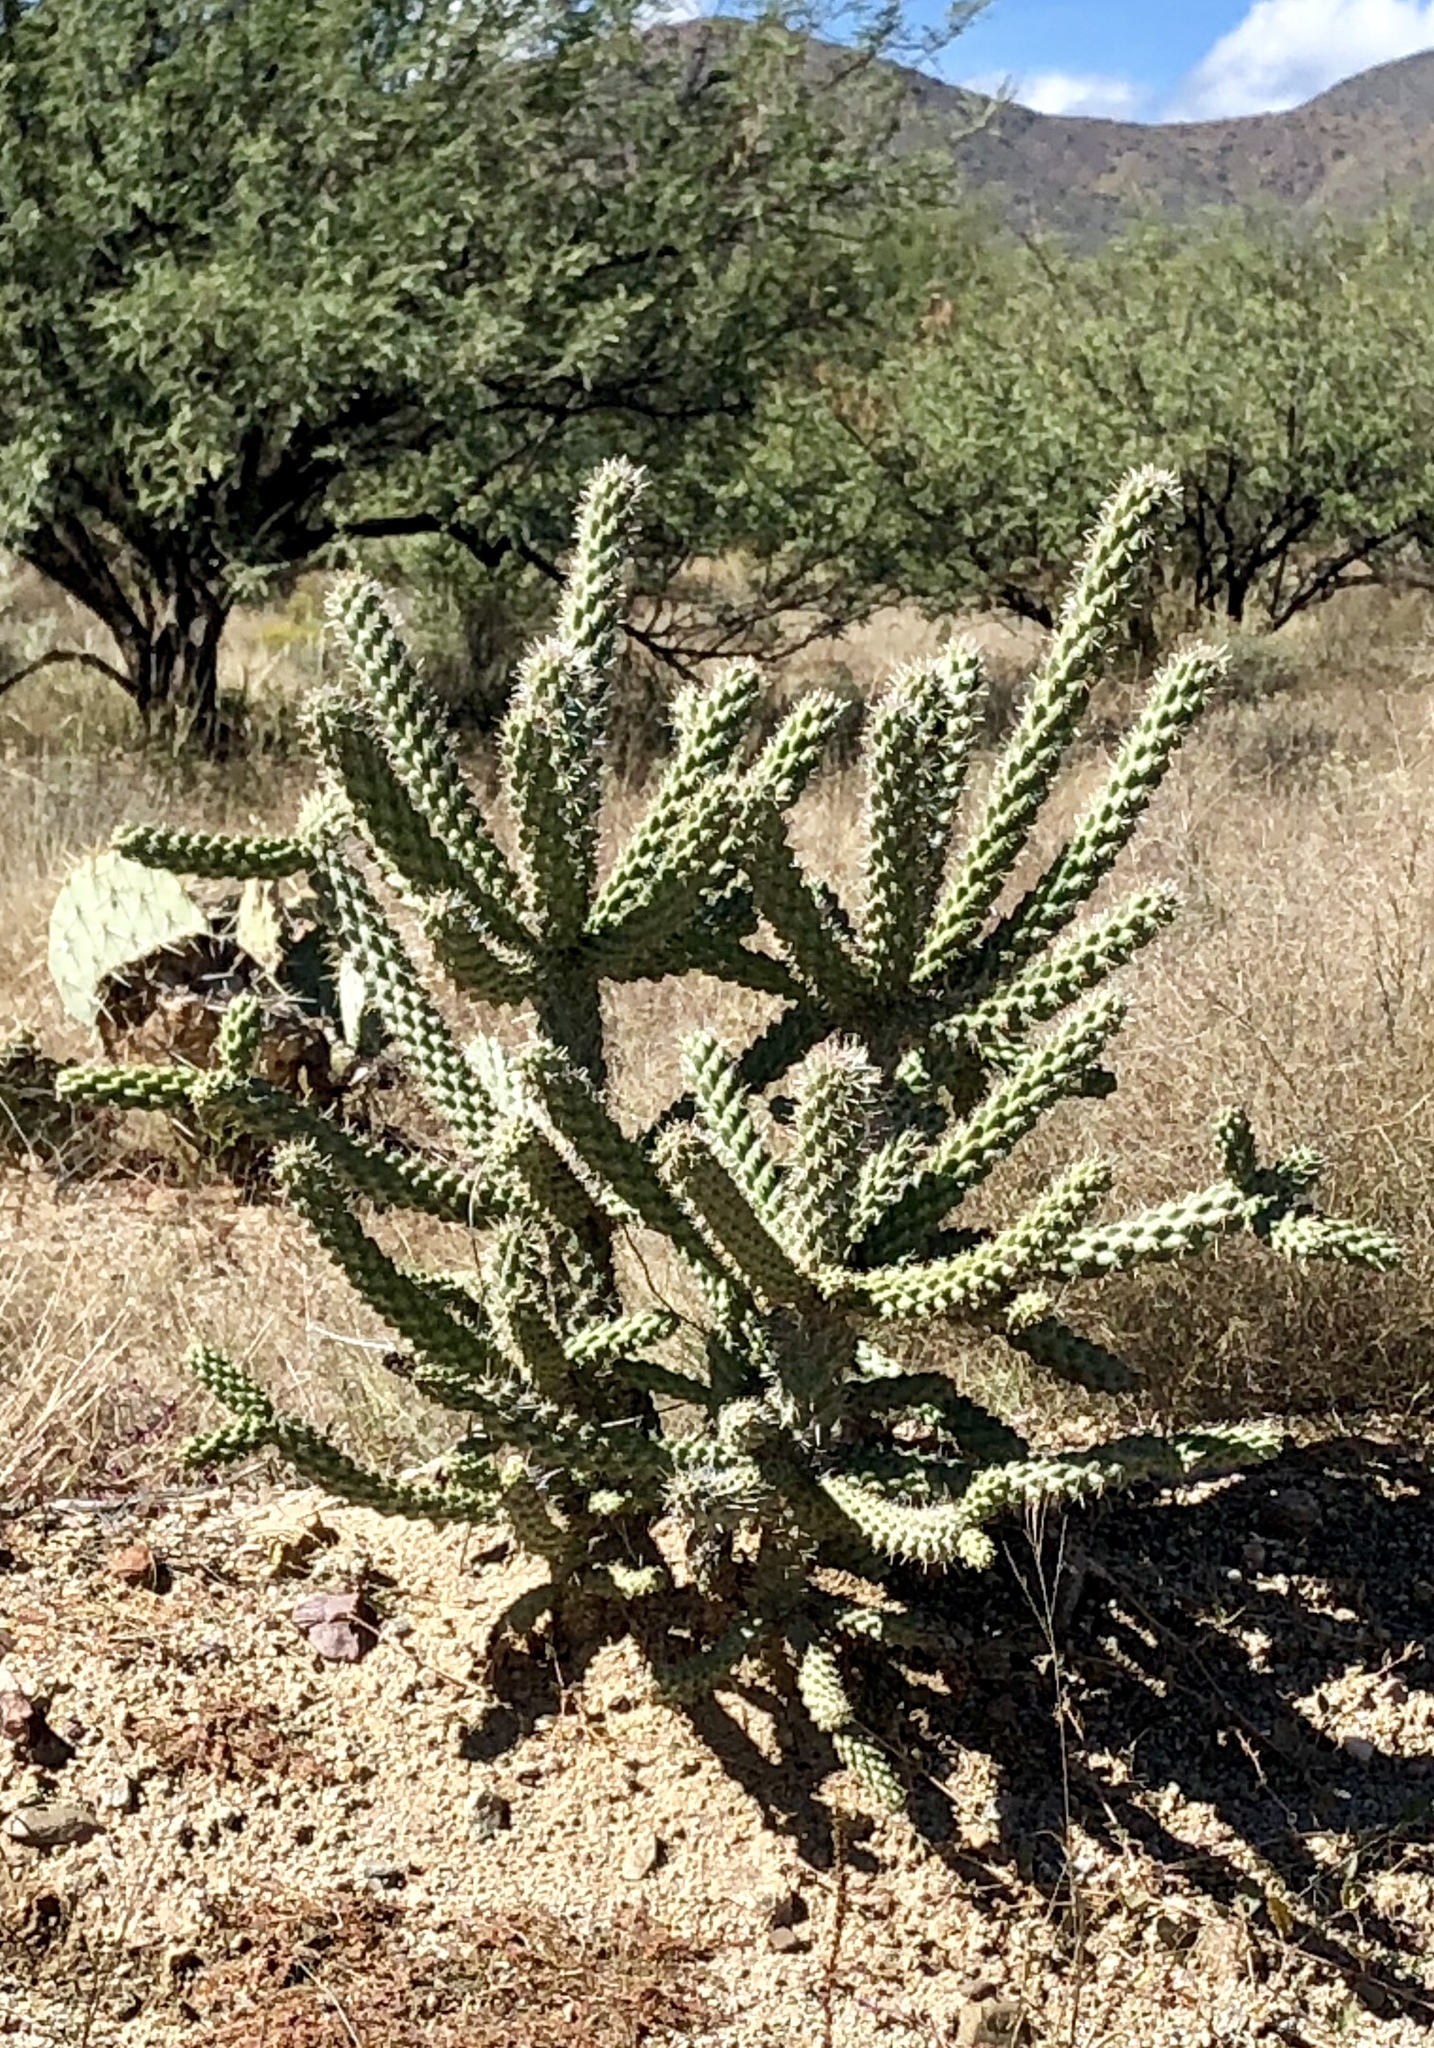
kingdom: Plantae
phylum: Tracheophyta
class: Magnoliopsida
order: Caryophyllales
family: Cactaceae
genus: Cylindropuntia
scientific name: Cylindropuntia fulgida
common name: Jumping cholla
